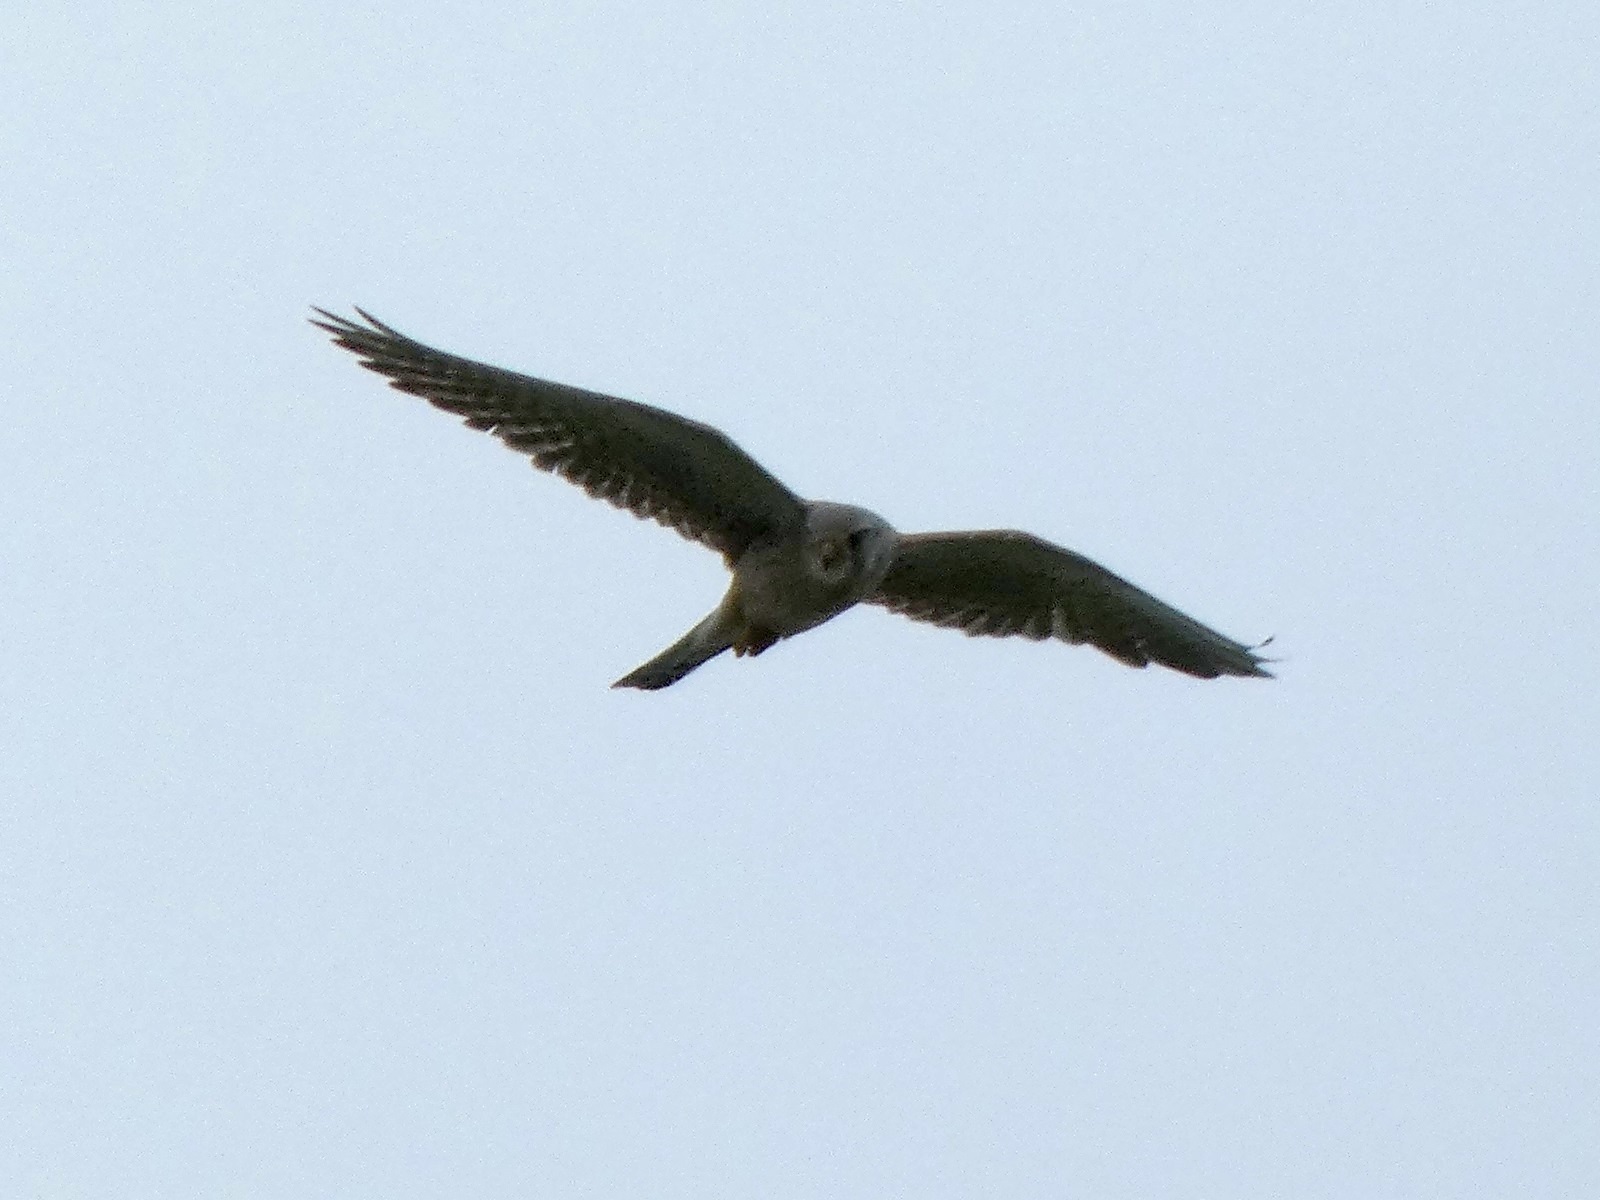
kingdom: Animalia
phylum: Chordata
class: Aves
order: Falconiformes
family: Falconidae
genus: Falco
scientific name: Falco tinnunculus
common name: Common kestrel
